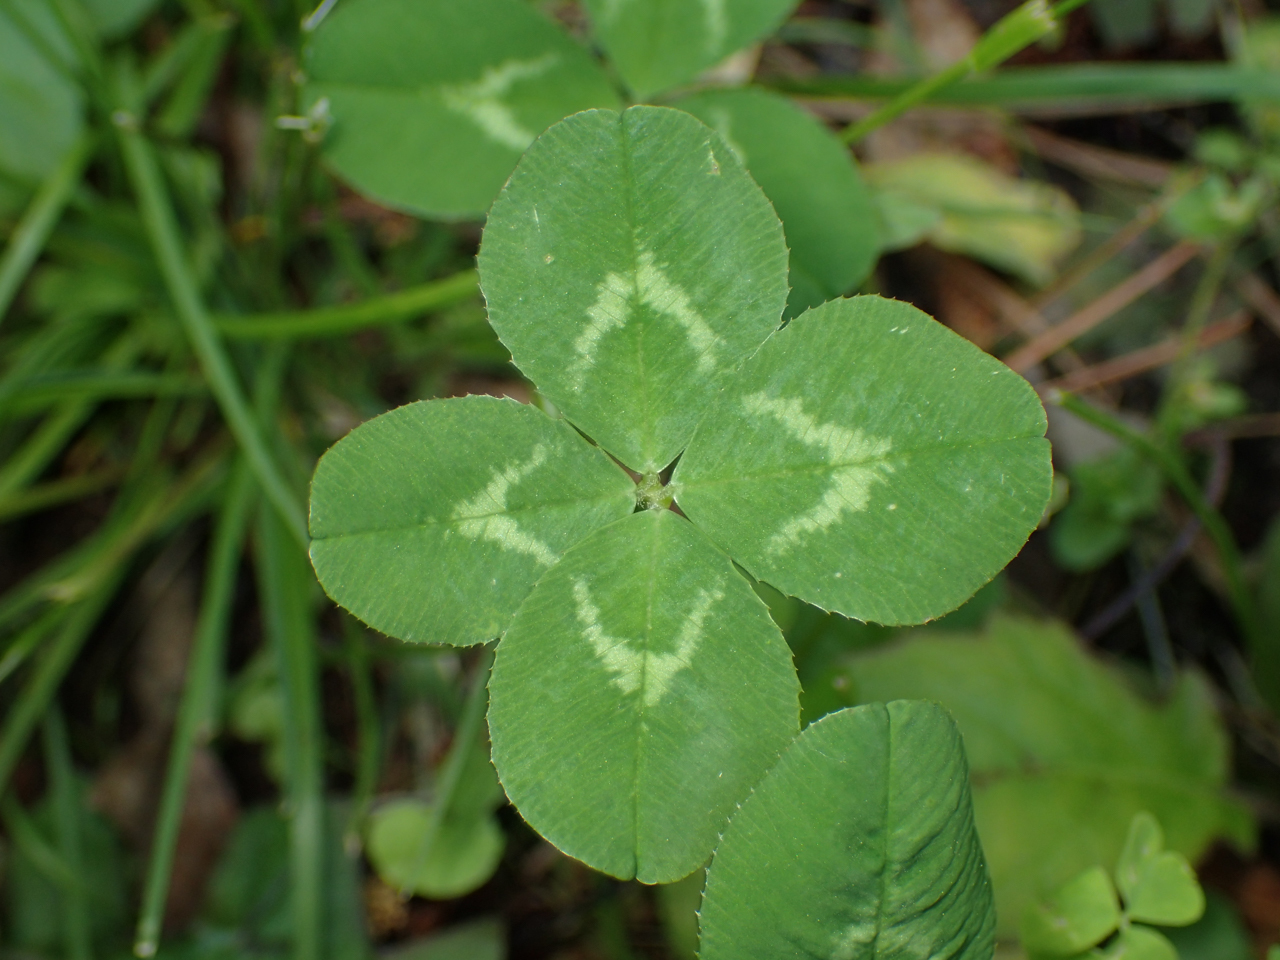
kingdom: Plantae
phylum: Tracheophyta
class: Magnoliopsida
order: Fabales
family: Fabaceae
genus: Trifolium
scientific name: Trifolium repens
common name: White clover
